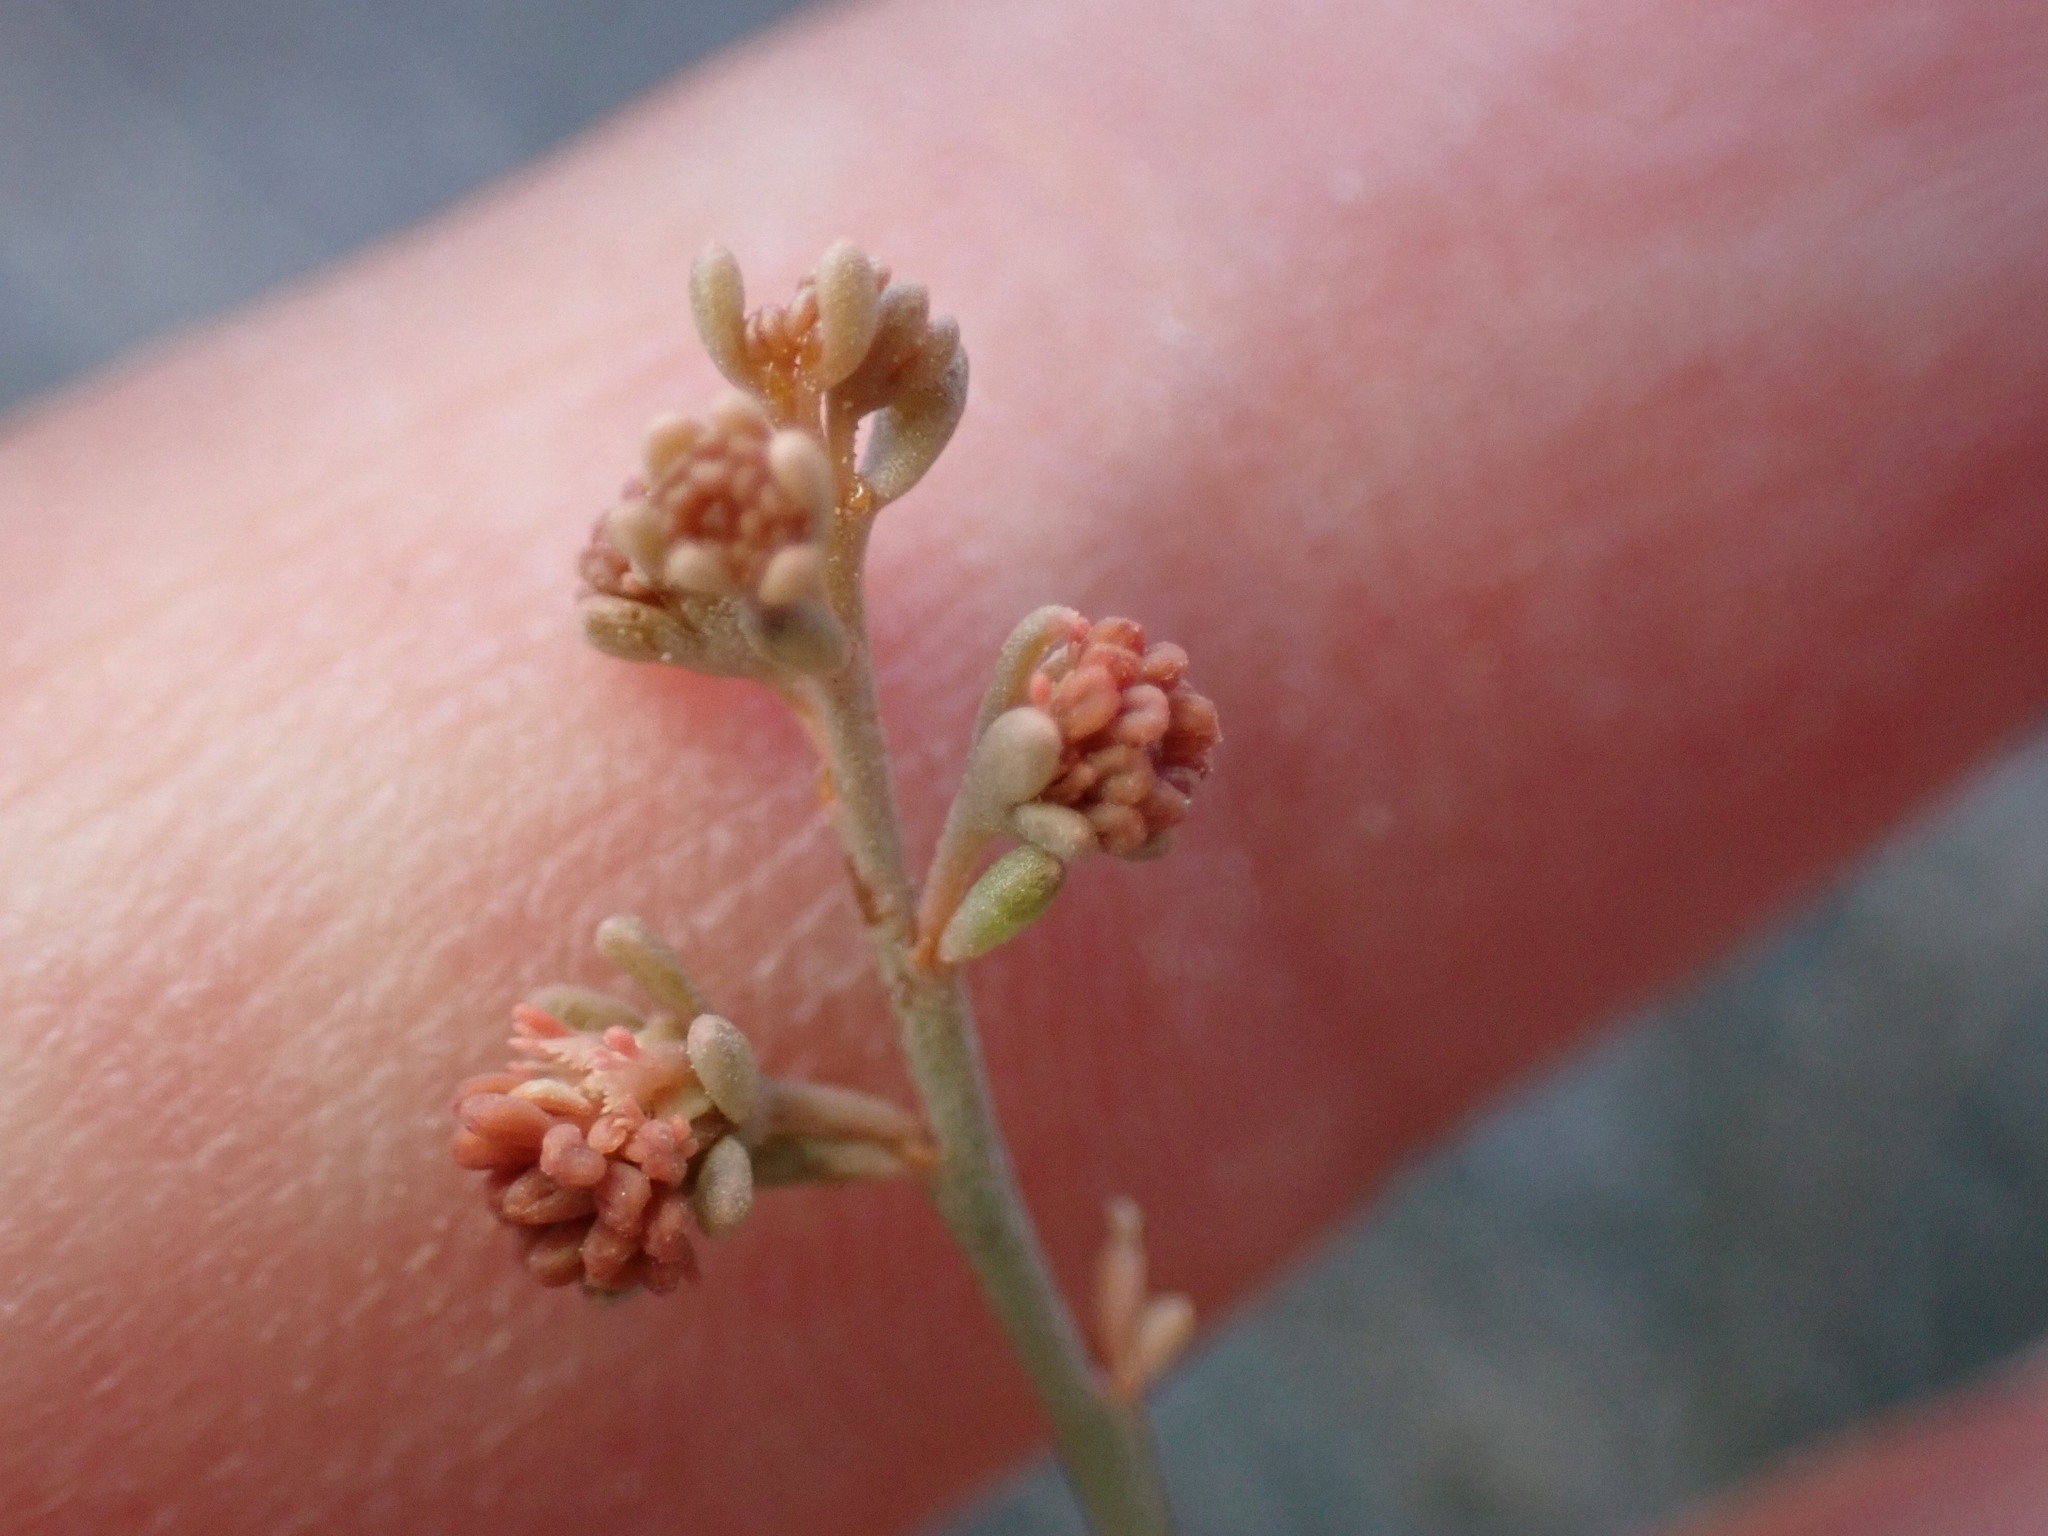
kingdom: Plantae
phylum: Tracheophyta
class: Magnoliopsida
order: Brassicales
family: Resedaceae
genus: Reseda
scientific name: Reseda scoparia
